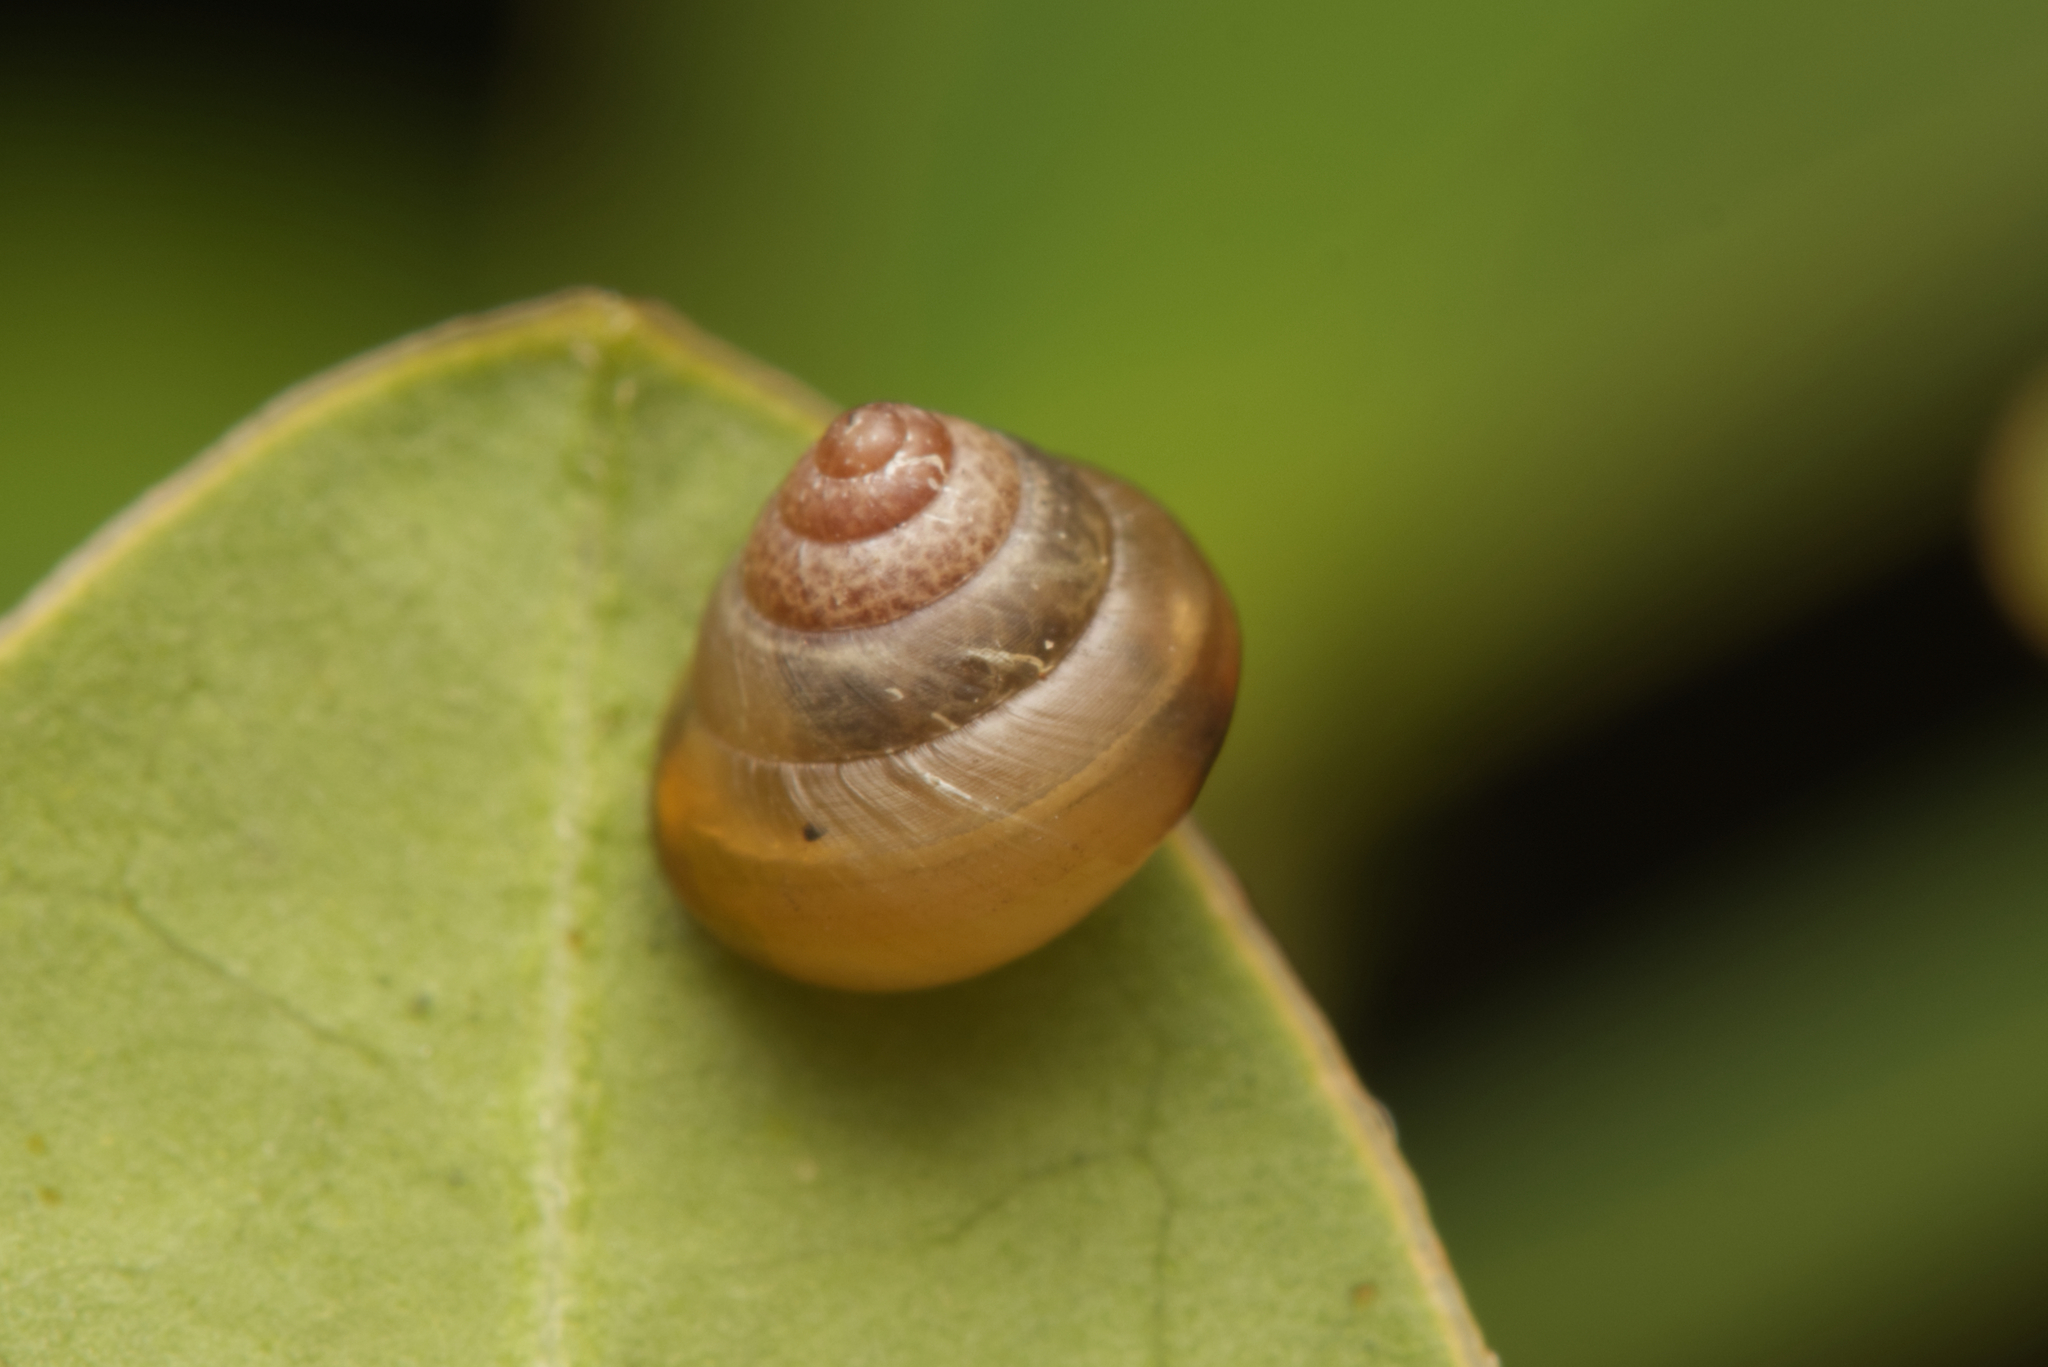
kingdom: Animalia
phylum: Mollusca
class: Gastropoda
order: Stylommatophora
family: Euconulidae
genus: Coneuplecta
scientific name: Coneuplecta calculosa
